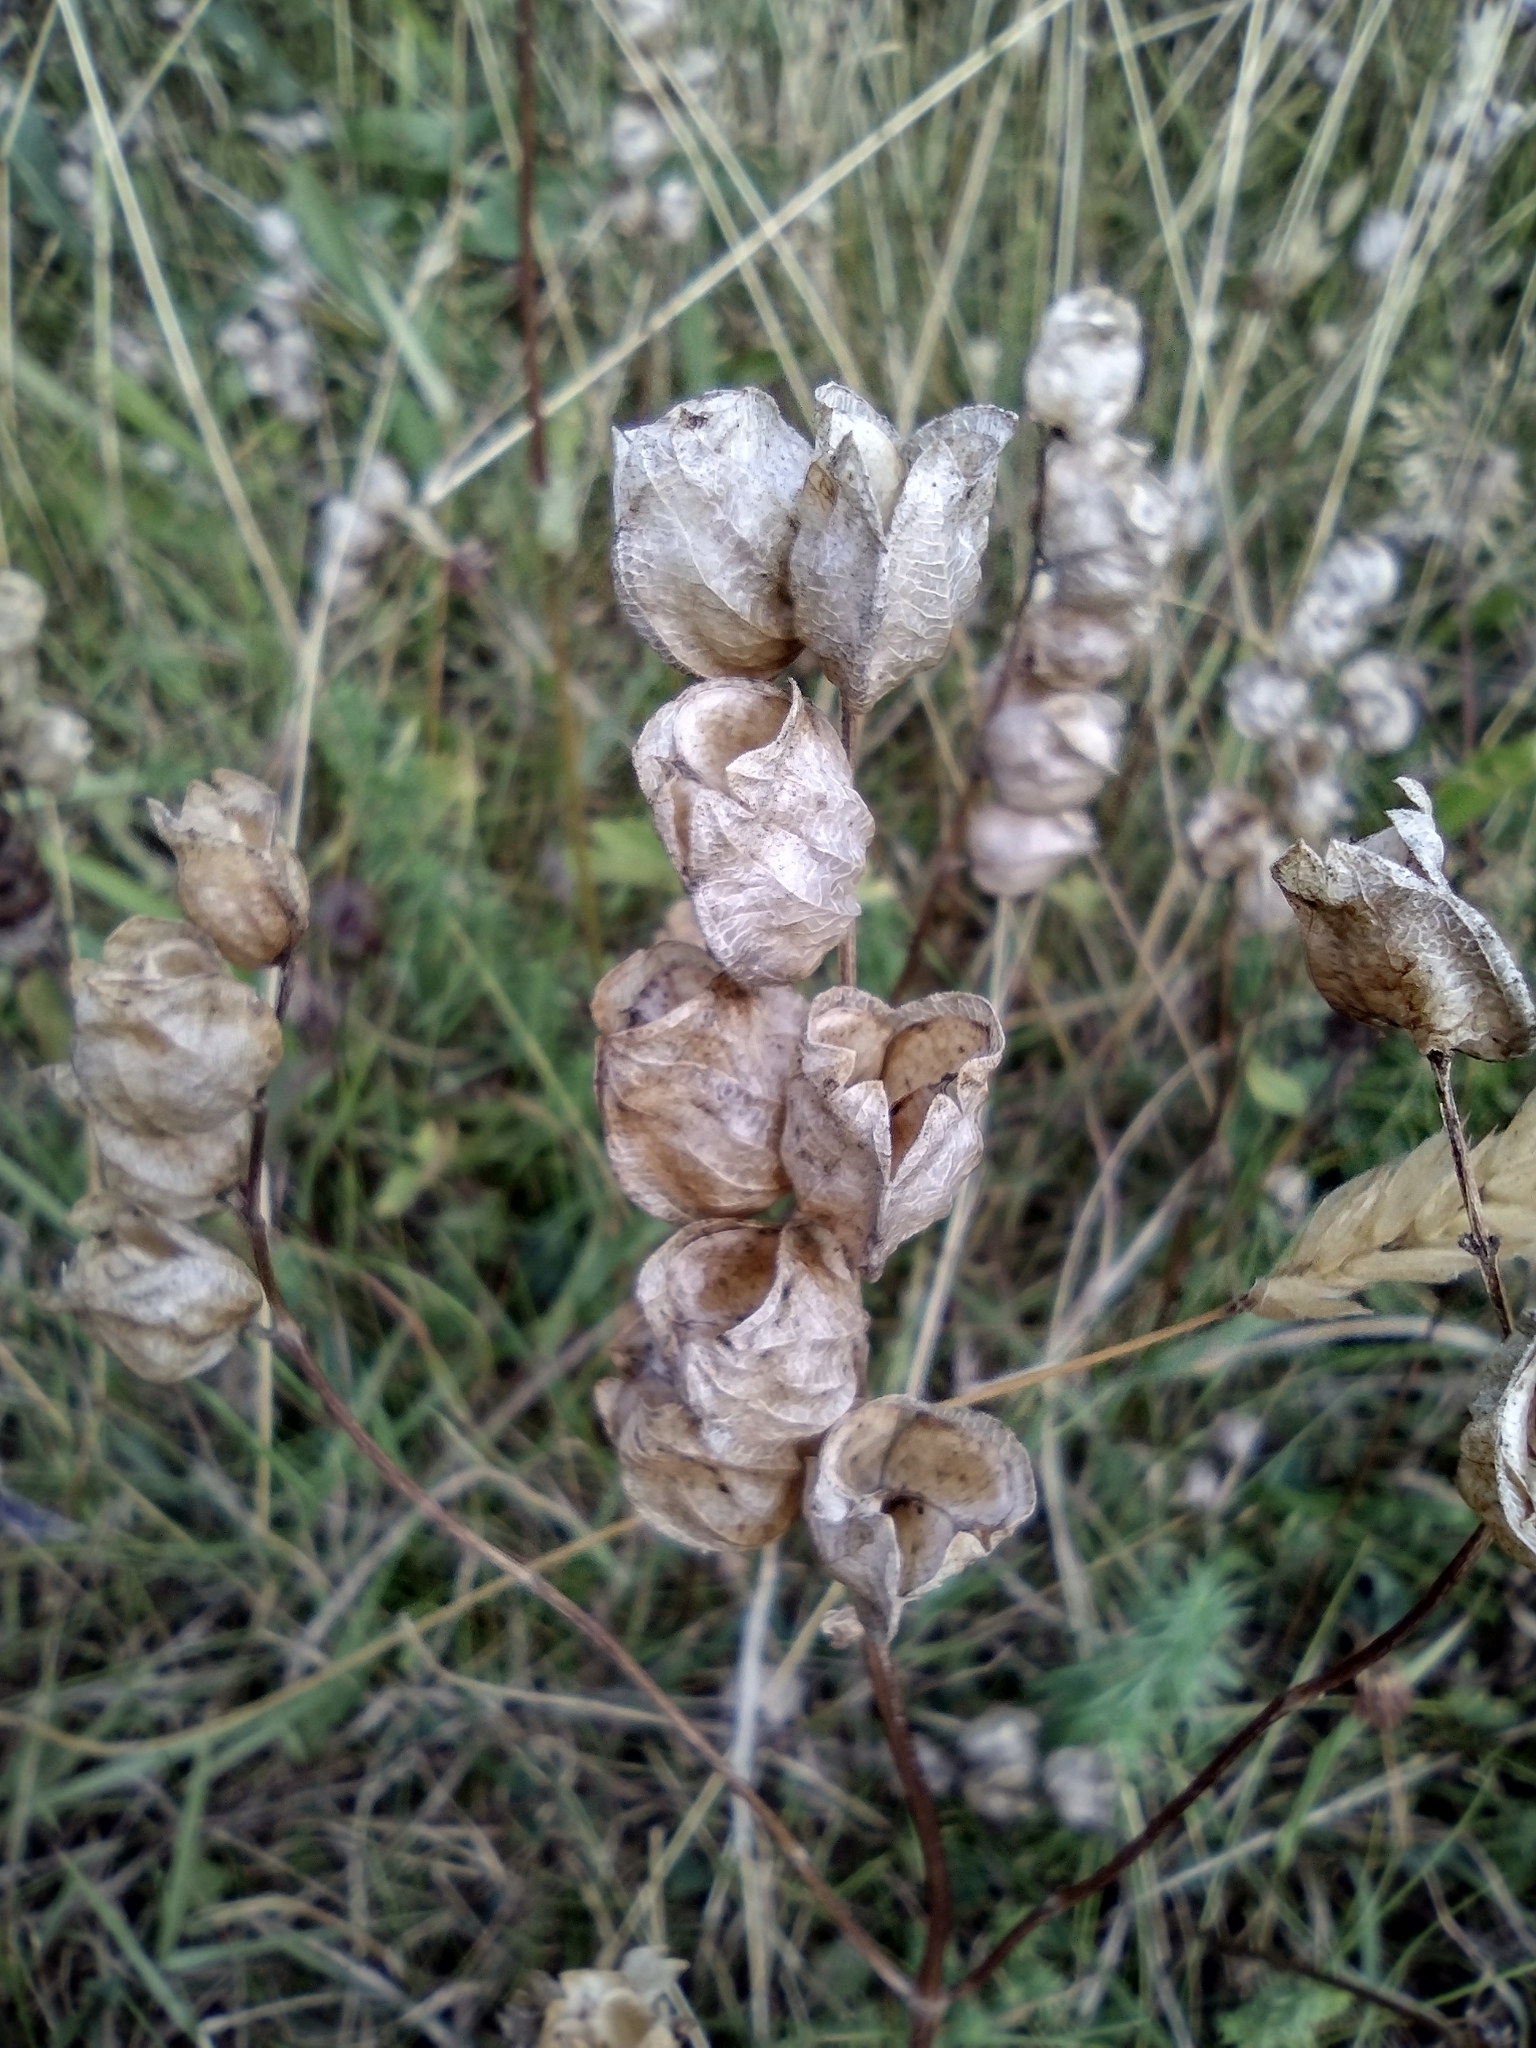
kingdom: Plantae
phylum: Tracheophyta
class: Magnoliopsida
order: Lamiales
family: Orobanchaceae
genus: Rhinanthus
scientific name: Rhinanthus minor
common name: Yellow-rattle
